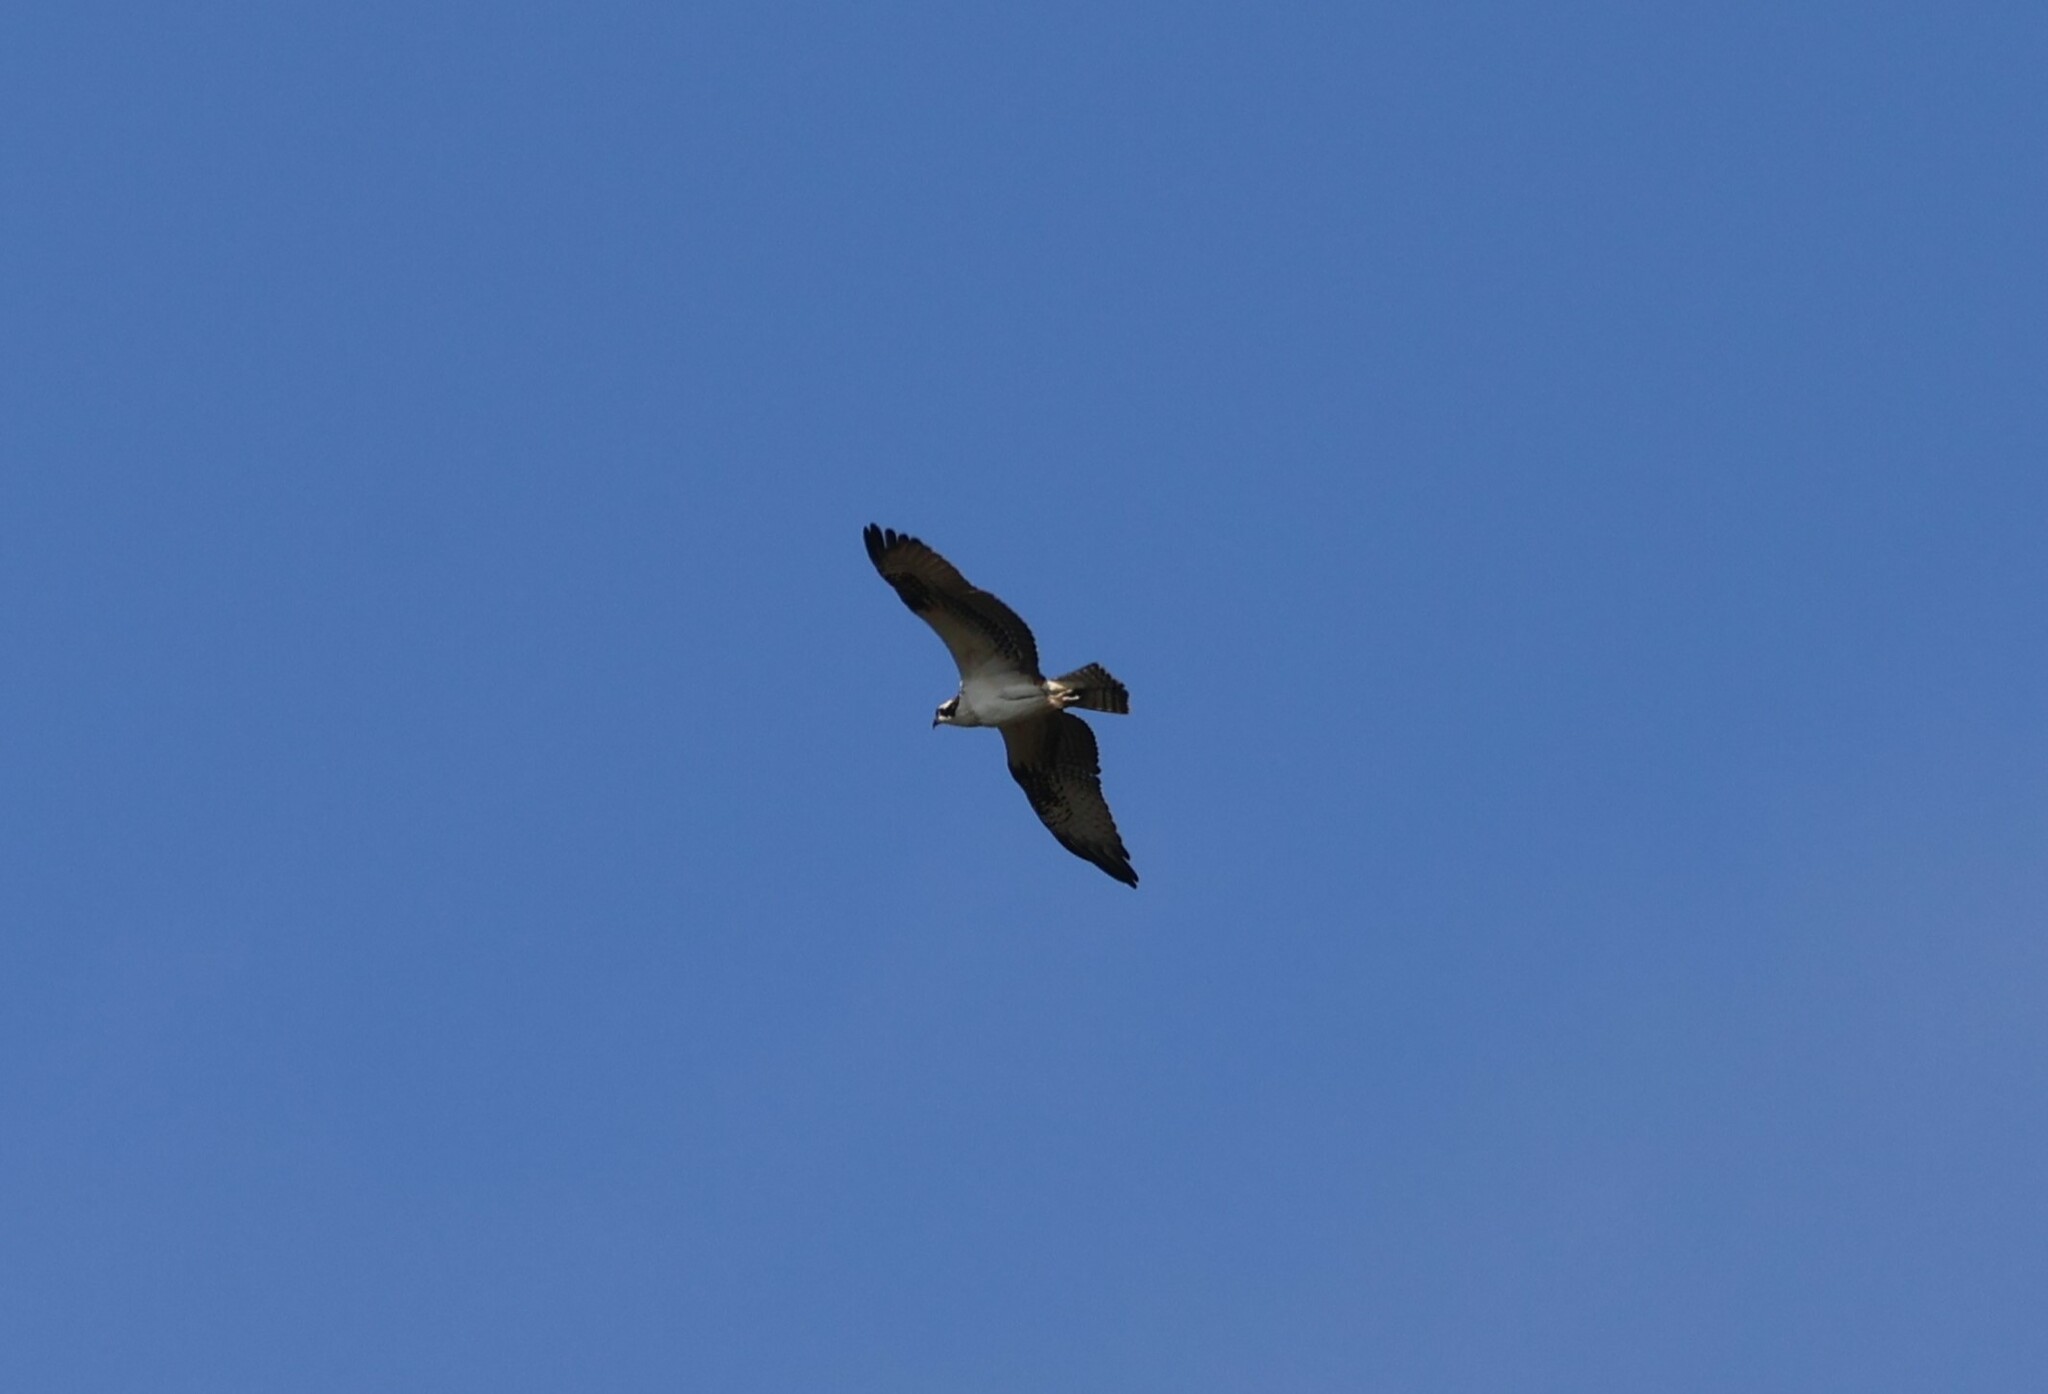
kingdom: Animalia
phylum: Chordata
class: Aves
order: Accipitriformes
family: Pandionidae
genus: Pandion
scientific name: Pandion haliaetus
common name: Osprey
